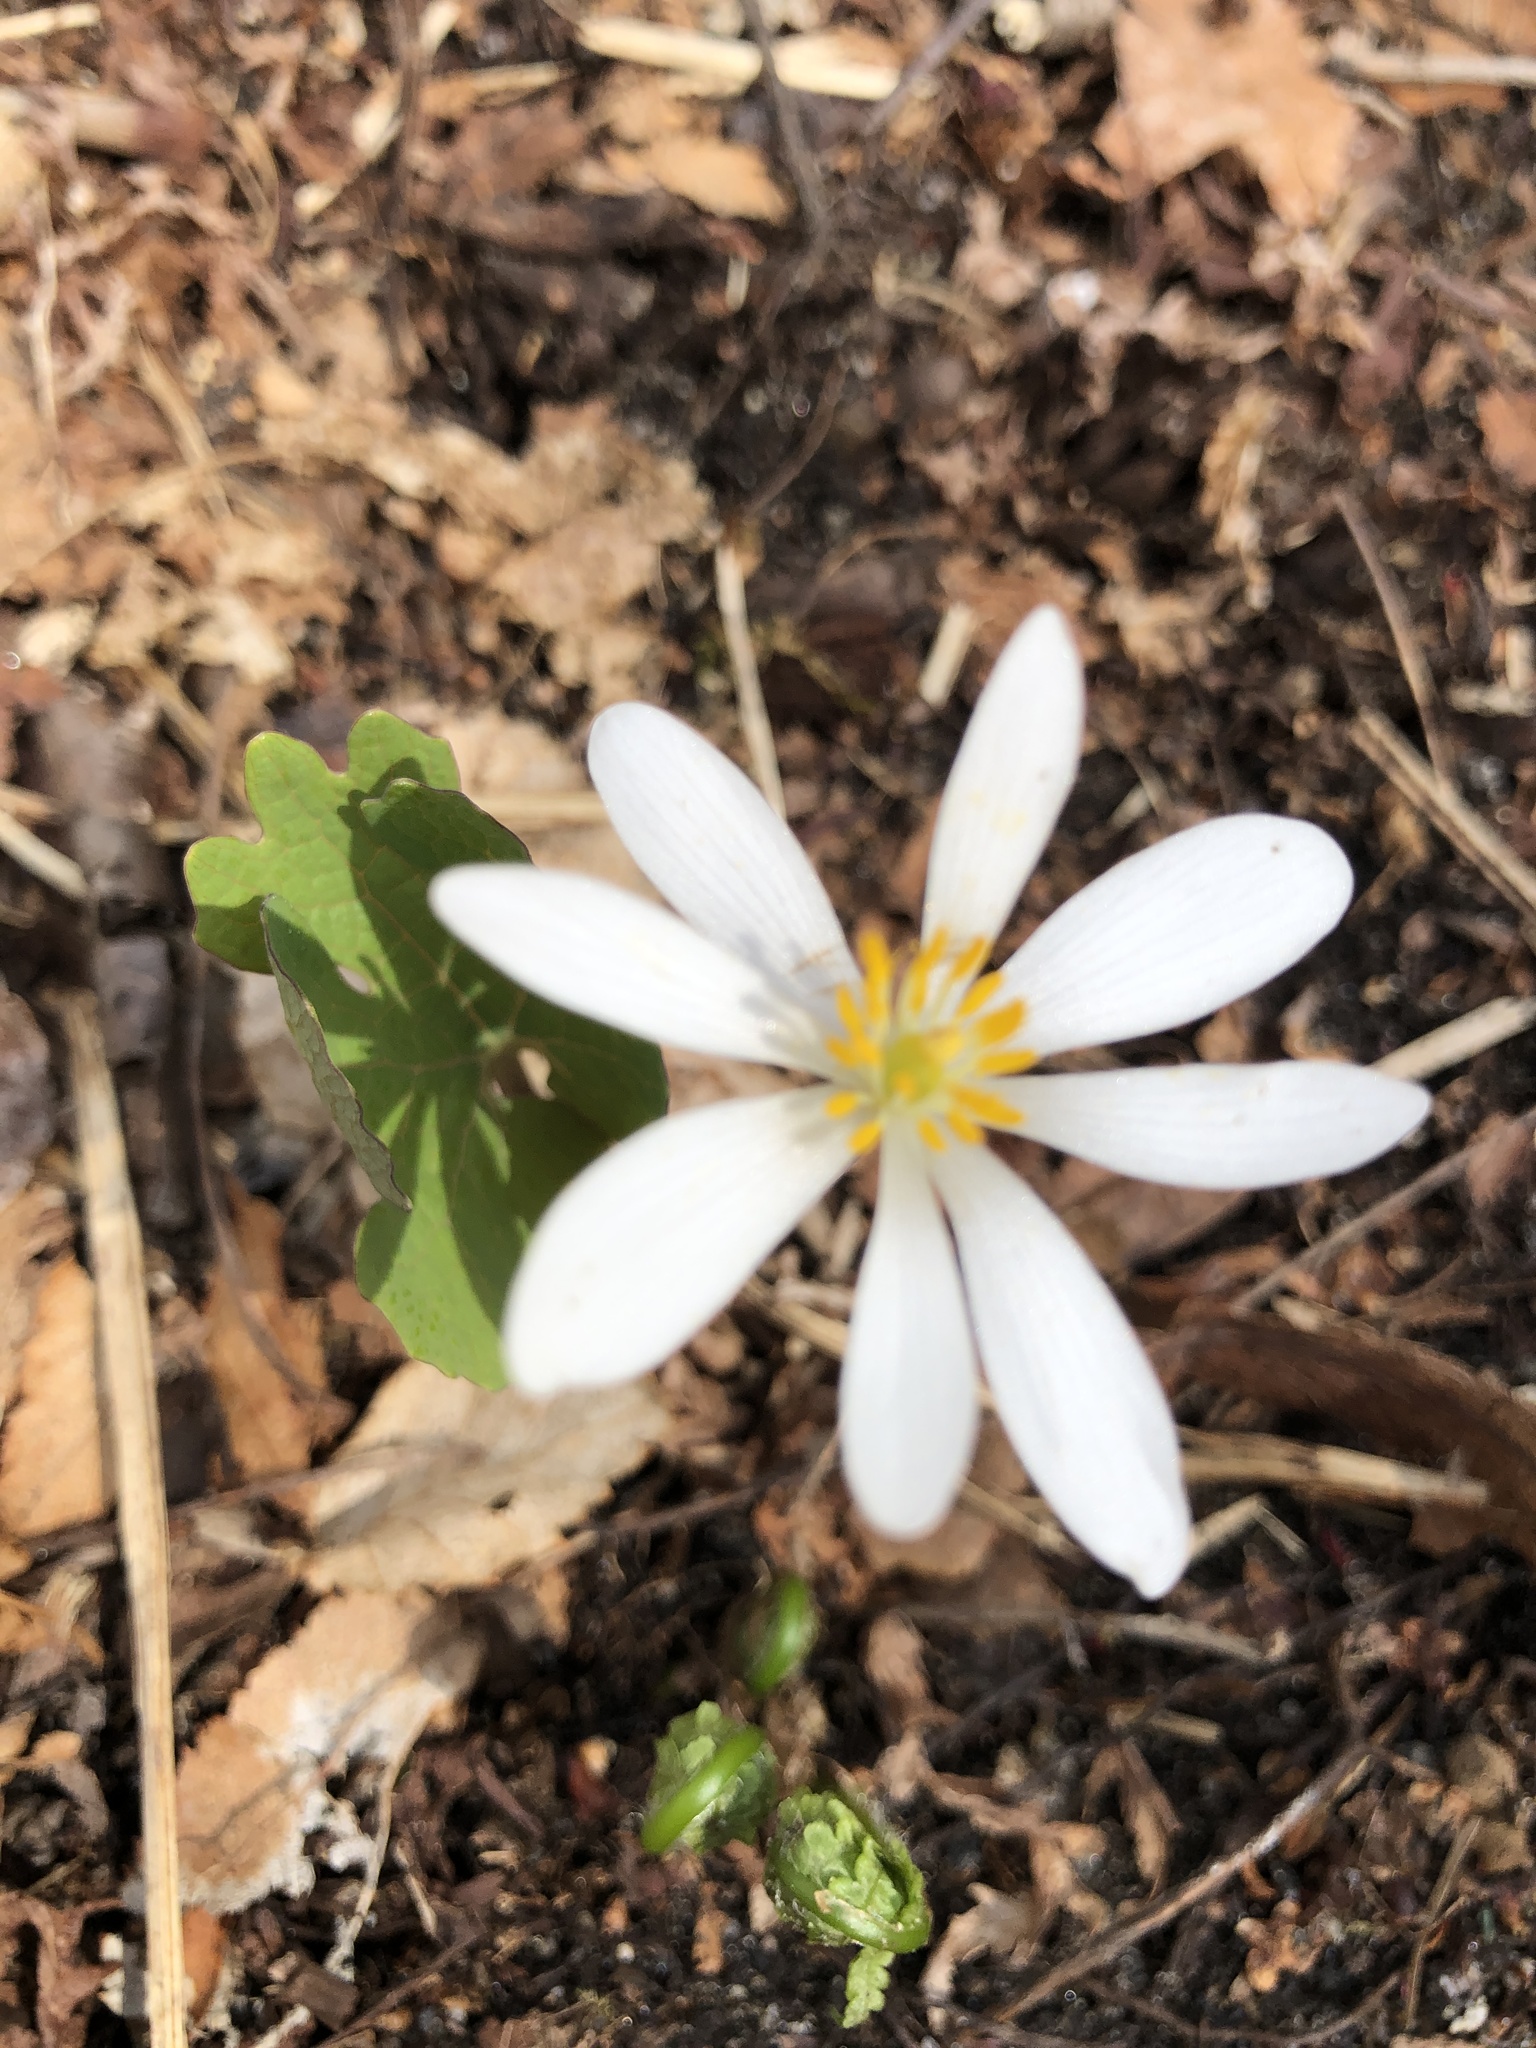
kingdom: Plantae
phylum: Tracheophyta
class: Magnoliopsida
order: Ranunculales
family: Papaveraceae
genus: Sanguinaria
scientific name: Sanguinaria canadensis
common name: Bloodroot
